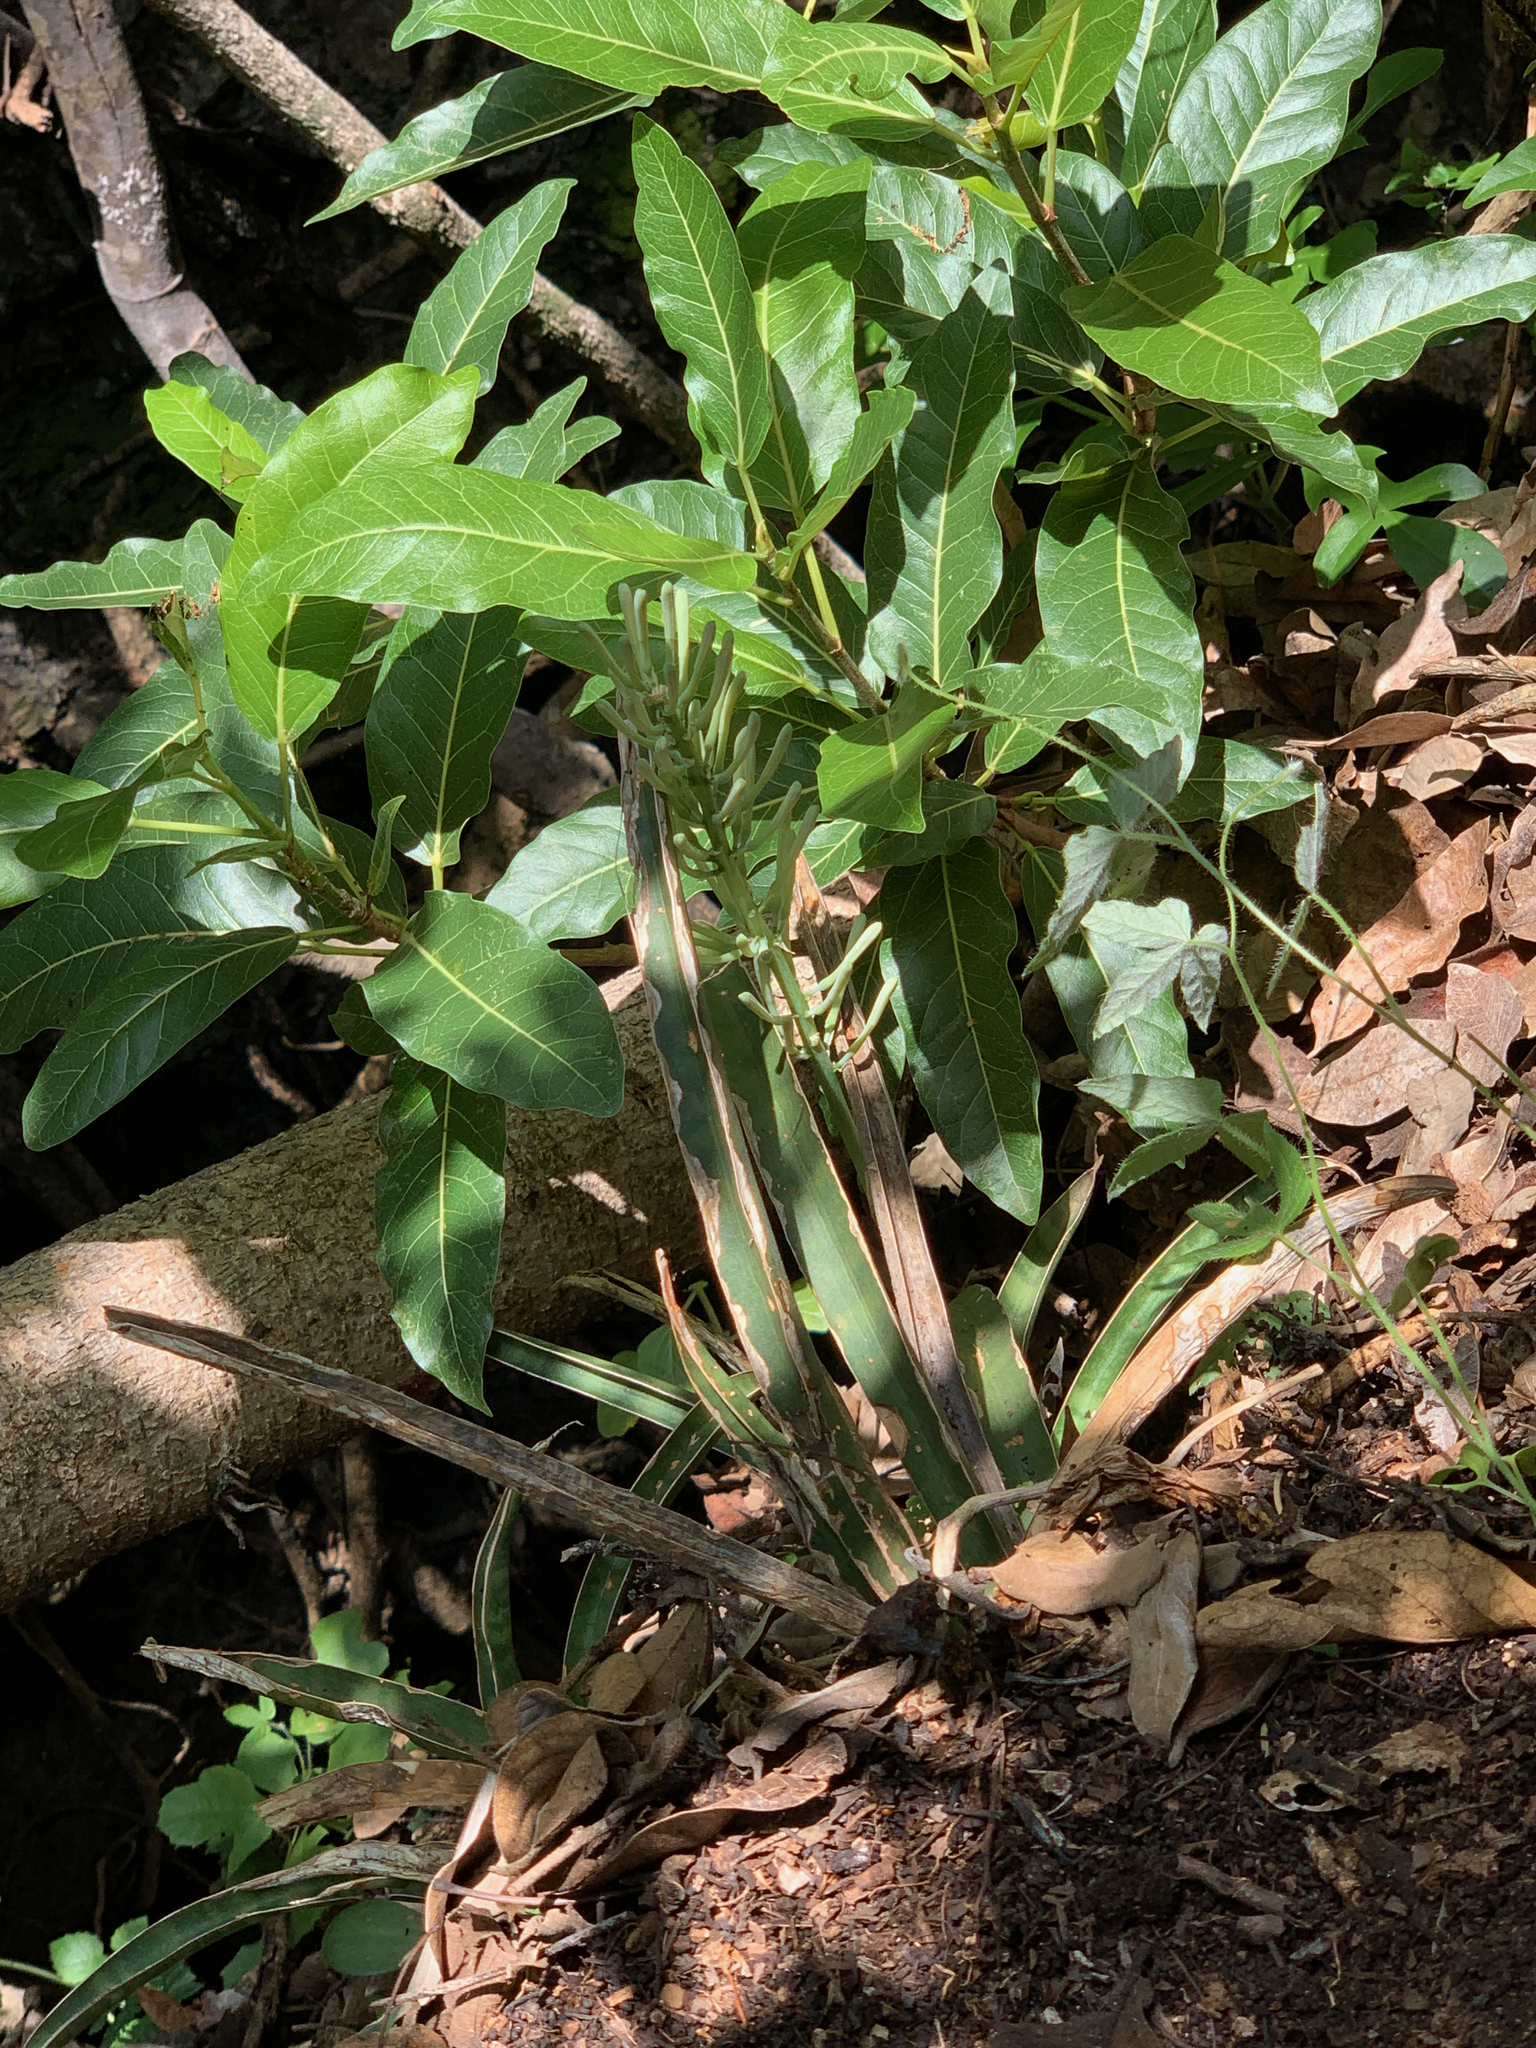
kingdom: Plantae
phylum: Tracheophyta
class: Magnoliopsida
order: Rosales
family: Moraceae
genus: Ficus
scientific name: Ficus ingens
